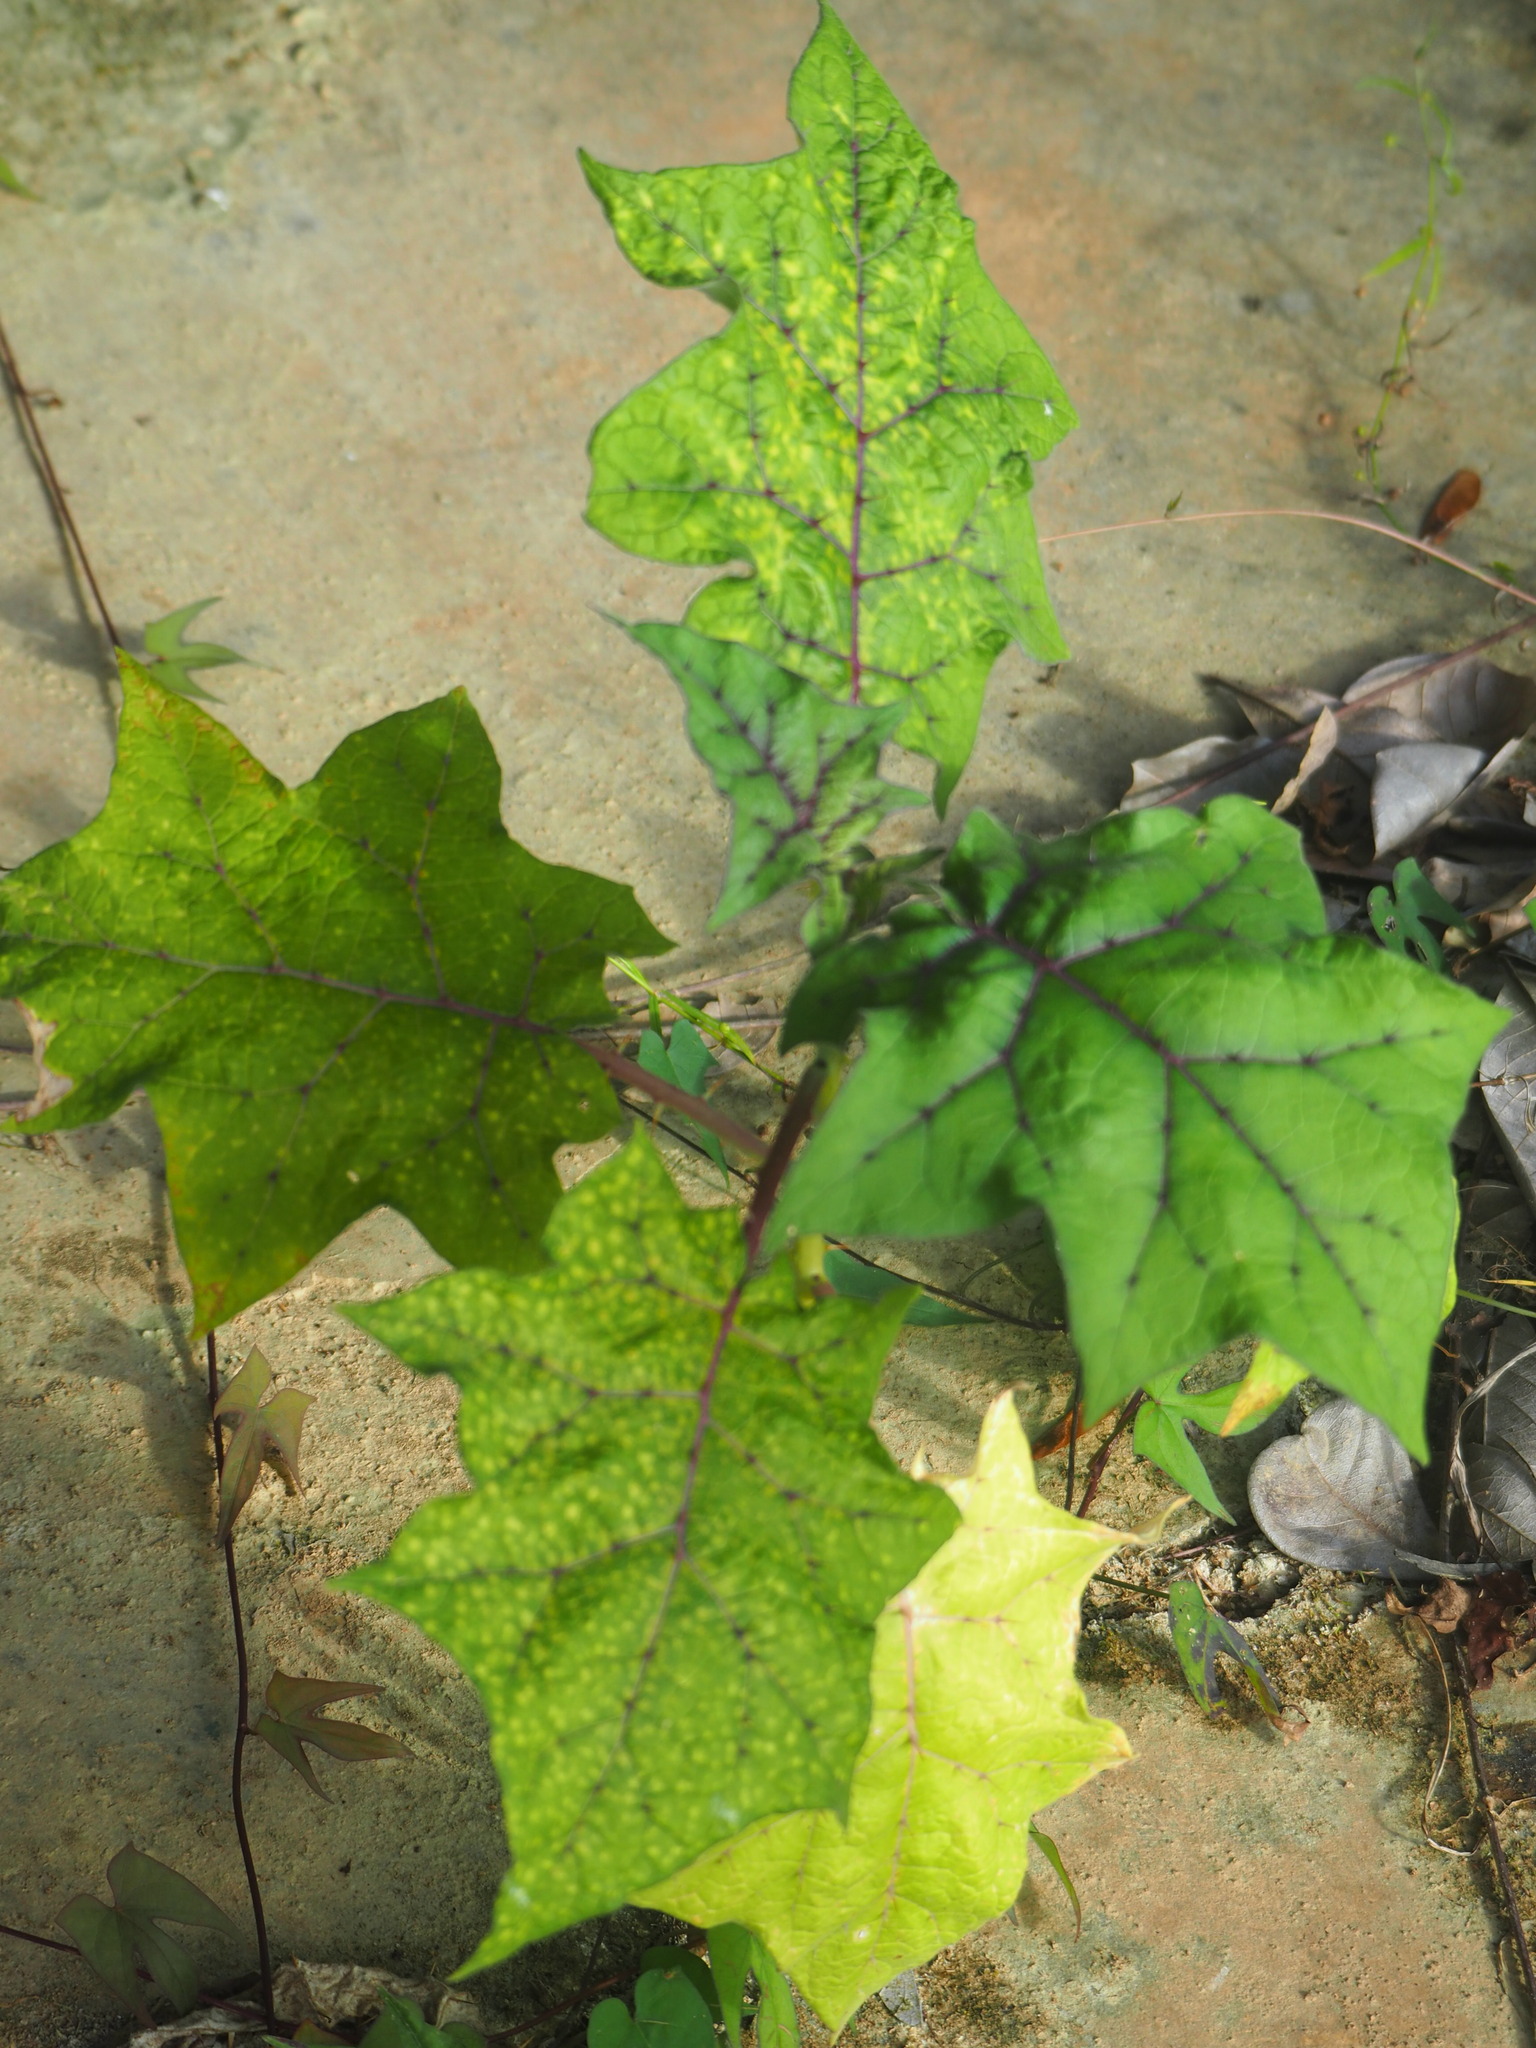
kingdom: Plantae
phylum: Tracheophyta
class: Magnoliopsida
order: Solanales
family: Solanaceae
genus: Solanum
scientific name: Solanum
